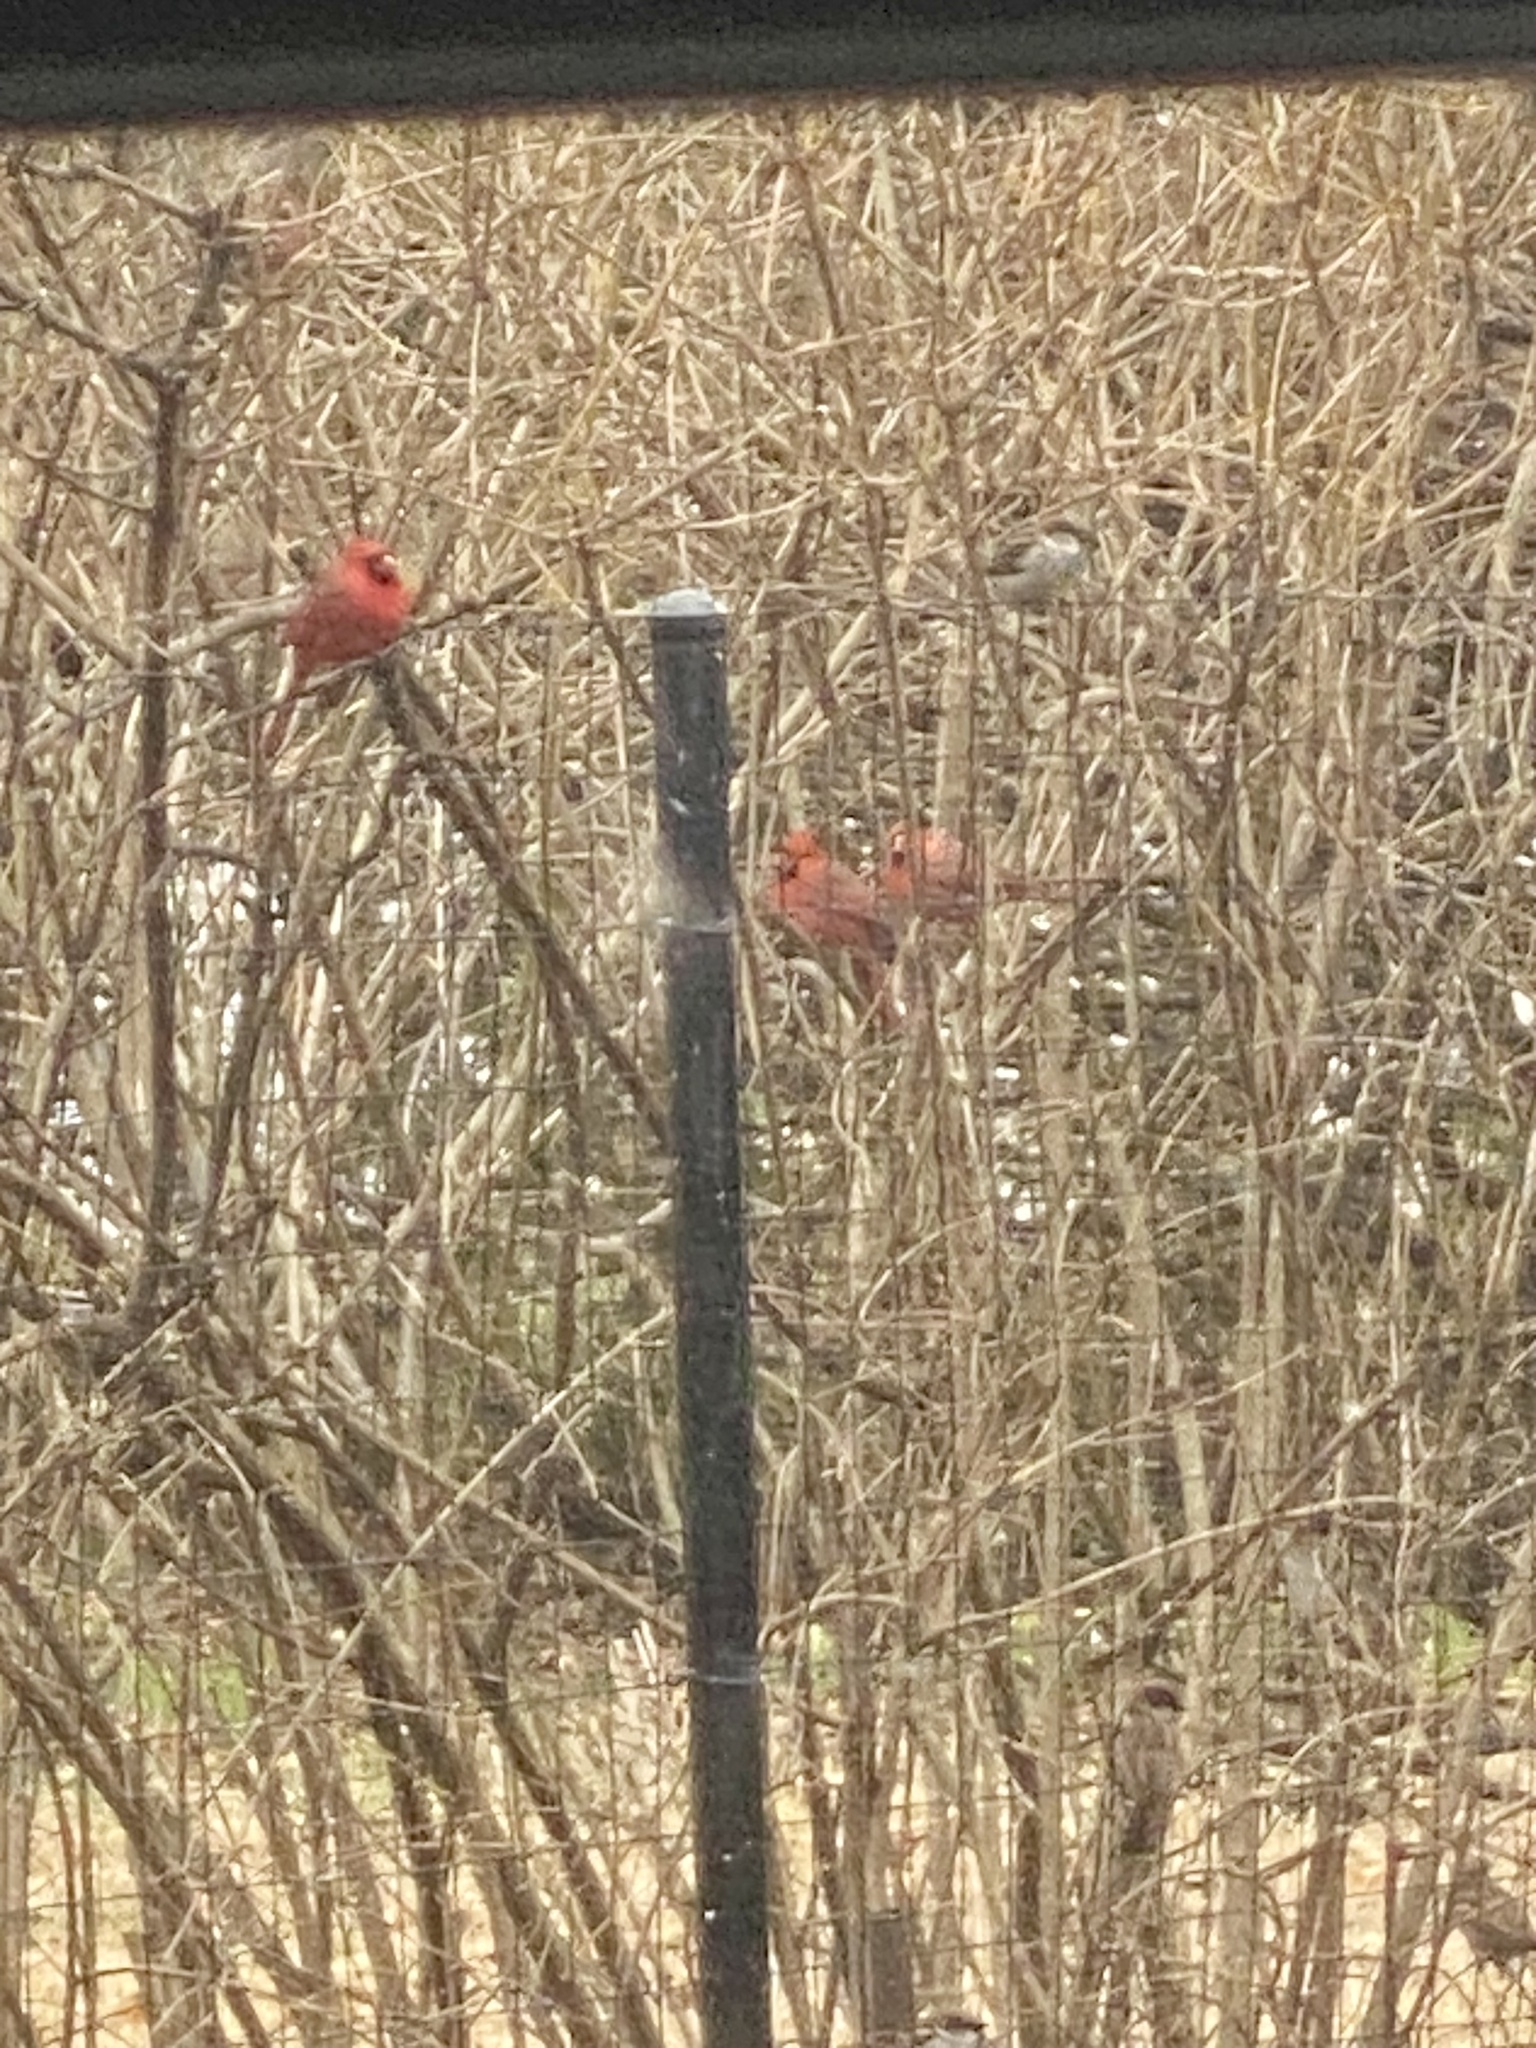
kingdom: Animalia
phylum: Chordata
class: Aves
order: Passeriformes
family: Cardinalidae
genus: Cardinalis
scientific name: Cardinalis cardinalis
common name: Northern cardinal
